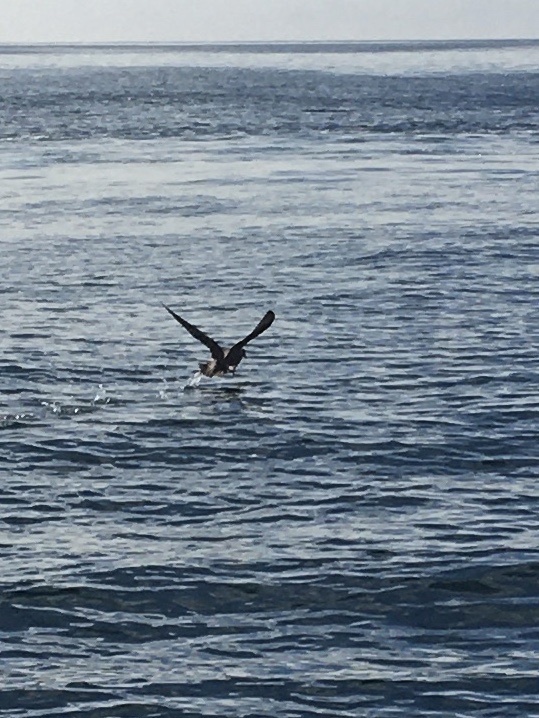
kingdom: Animalia
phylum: Chordata
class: Aves
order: Procellariiformes
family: Procellariidae
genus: Fulmarus
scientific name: Fulmarus glacialis
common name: Northern fulmar
